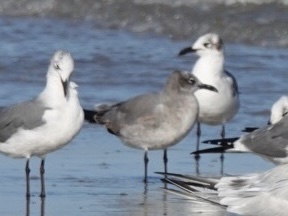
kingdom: Animalia
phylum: Chordata
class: Aves
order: Charadriiformes
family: Laridae
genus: Leucophaeus
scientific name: Leucophaeus atricilla
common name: Laughing gull
